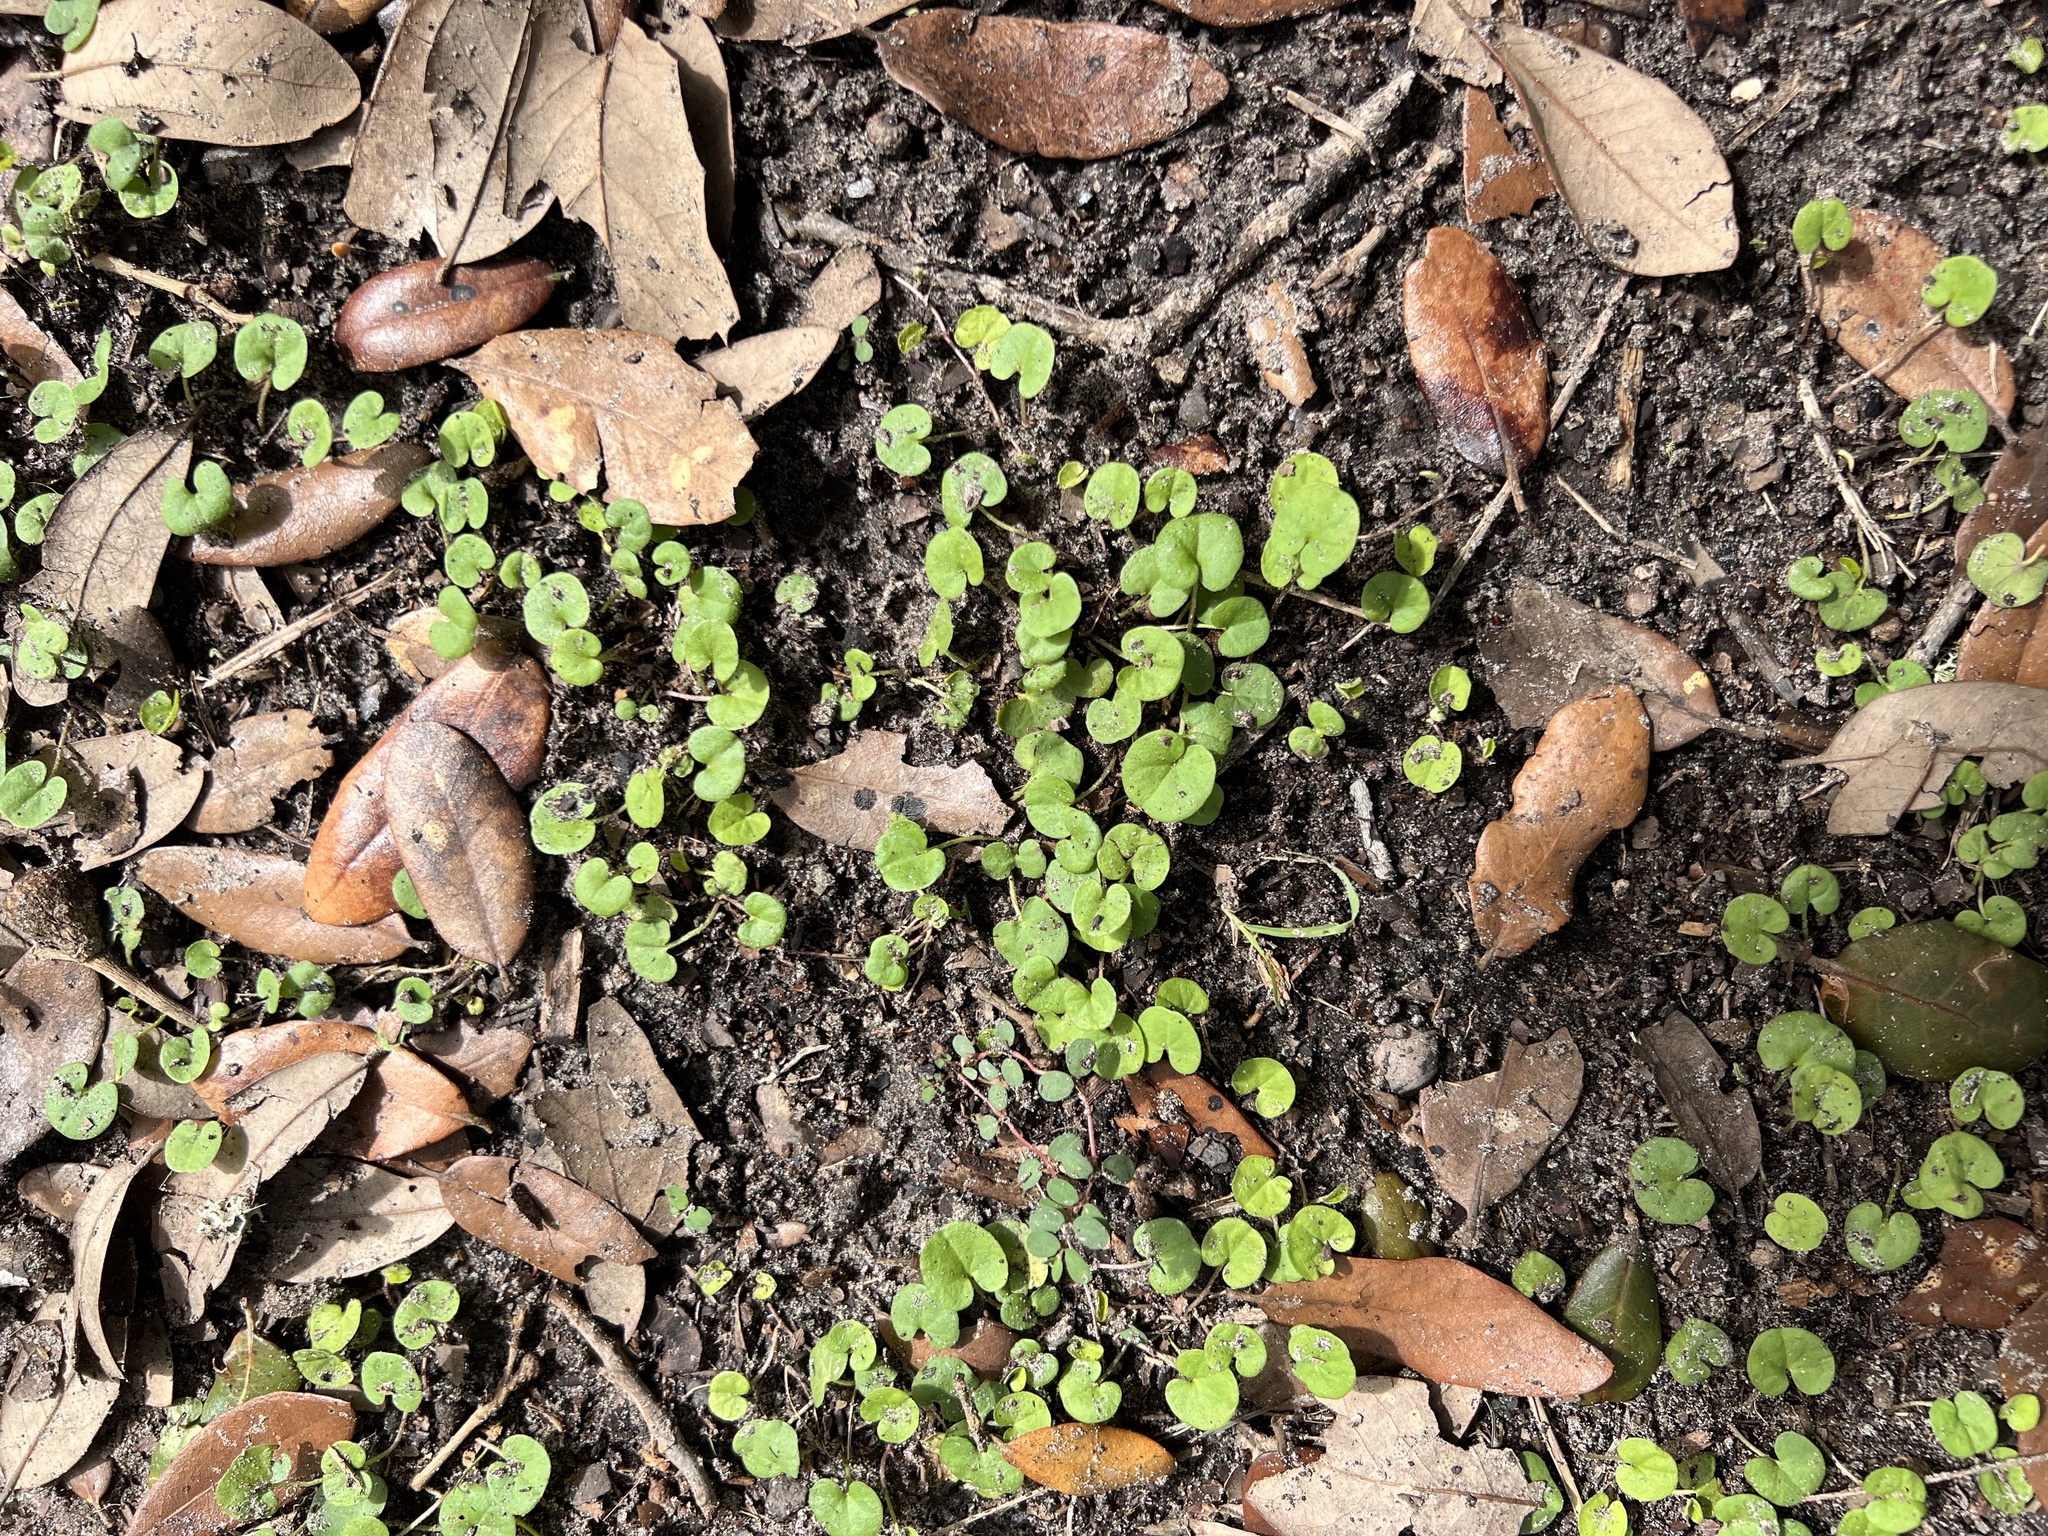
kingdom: Plantae
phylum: Tracheophyta
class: Magnoliopsida
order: Solanales
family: Convolvulaceae
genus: Dichondra
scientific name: Dichondra carolinensis
